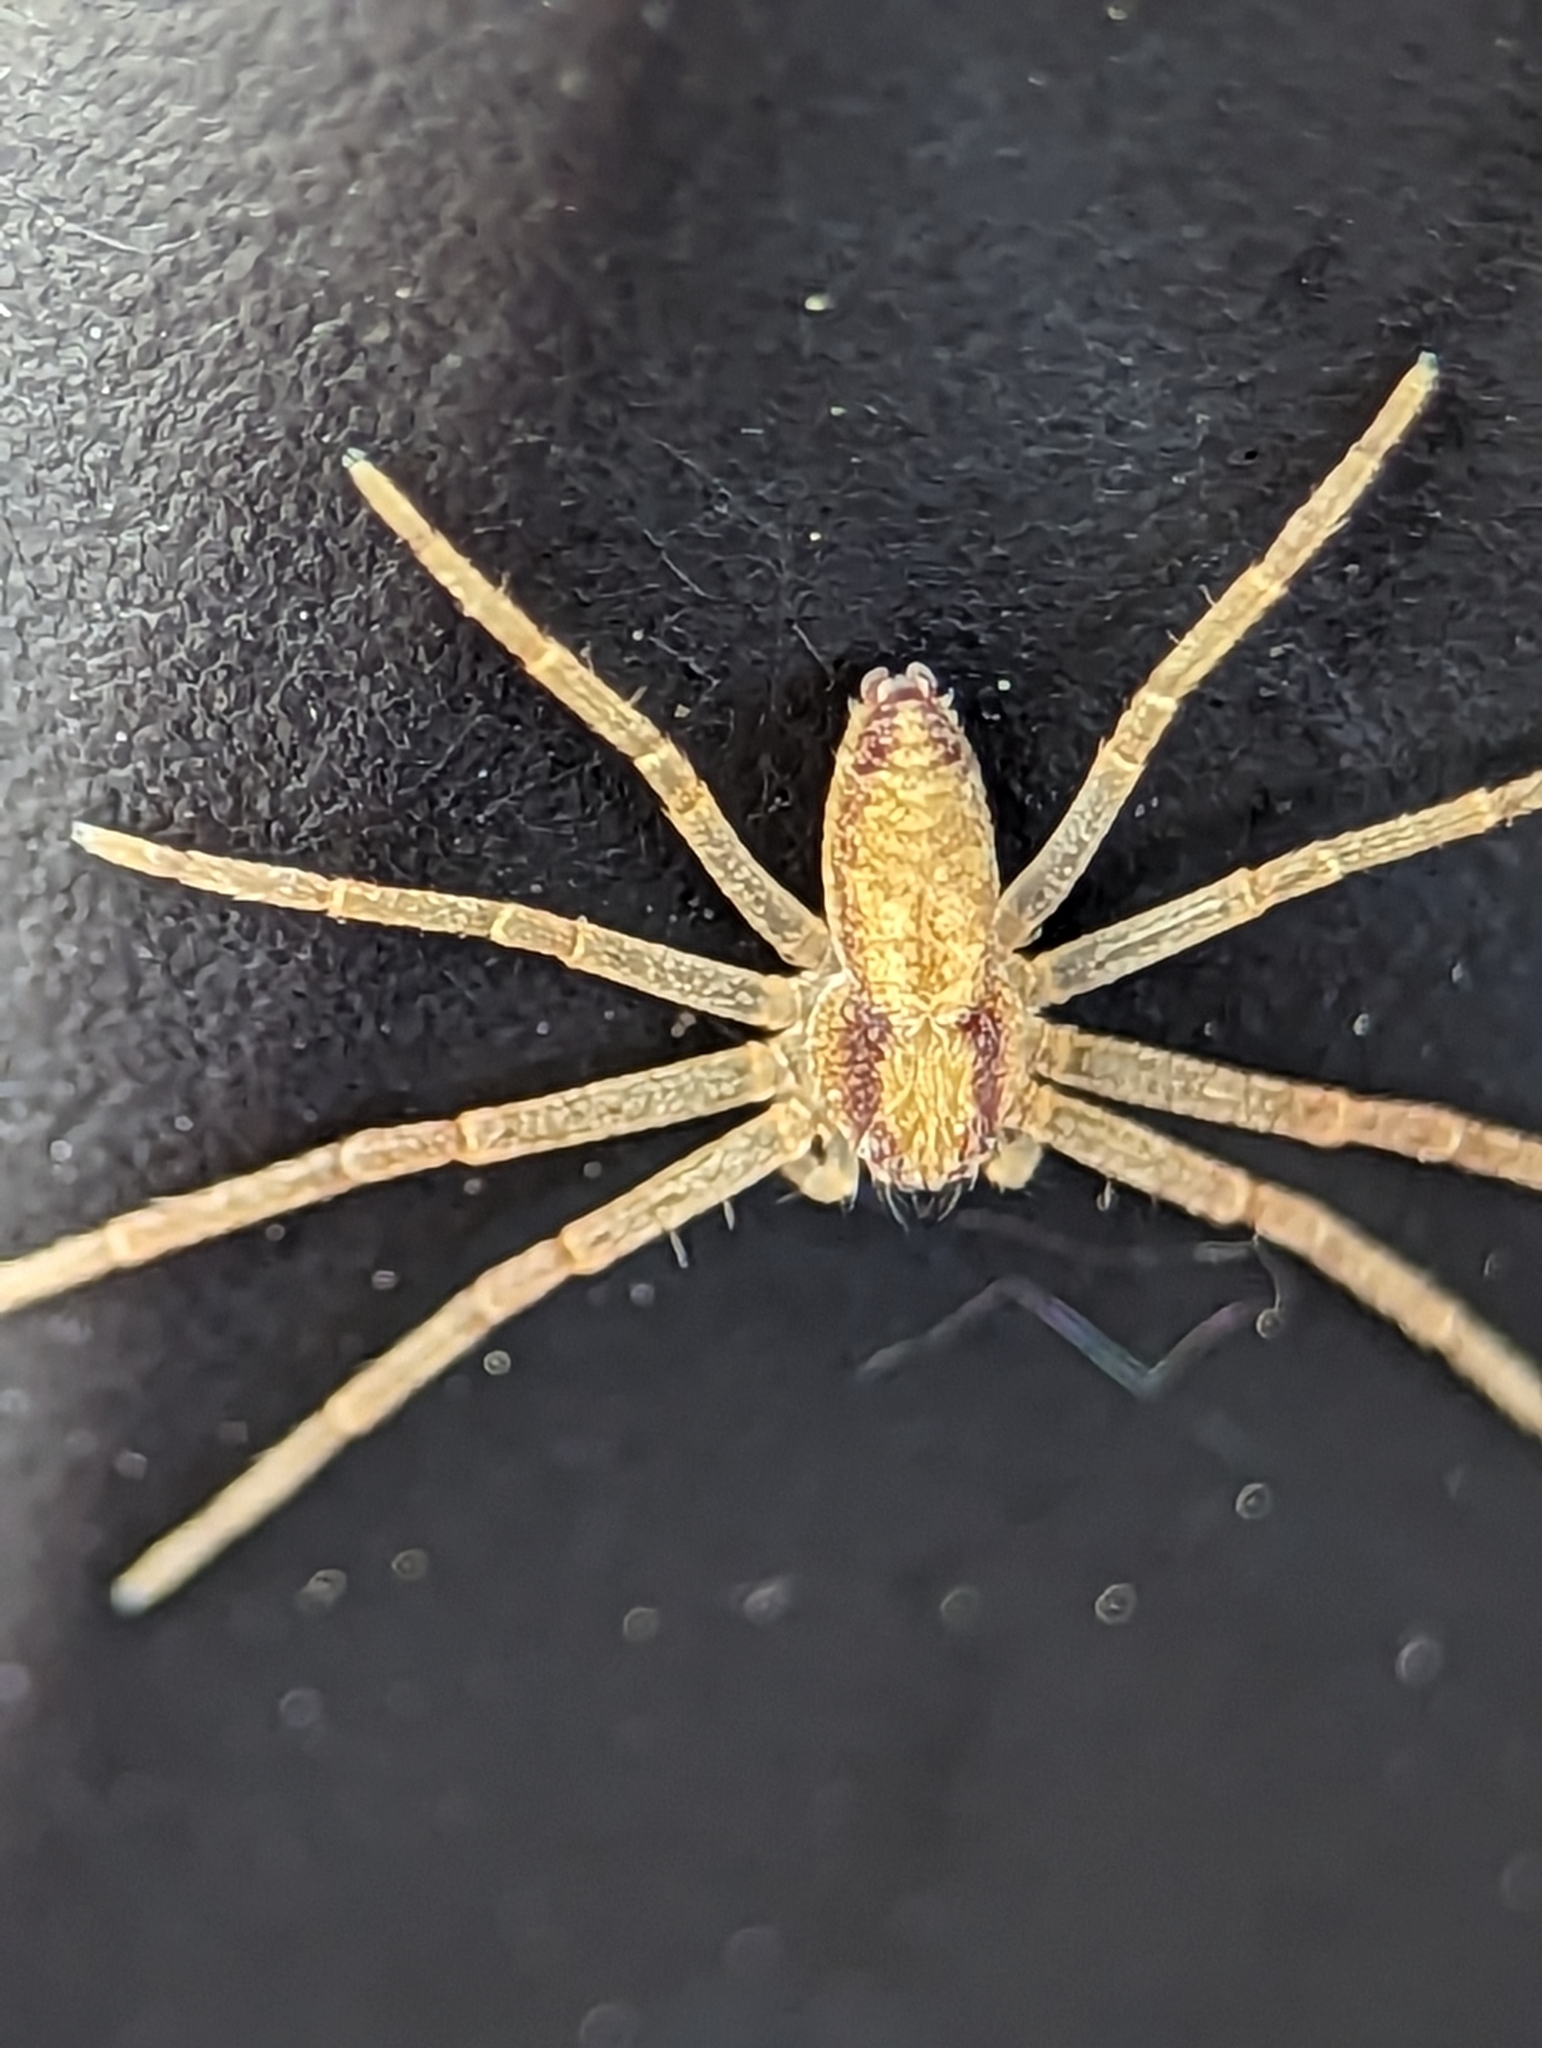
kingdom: Animalia
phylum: Arthropoda
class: Arachnida
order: Araneae
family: Philodromidae
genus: Philodromus
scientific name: Philodromus rufus
